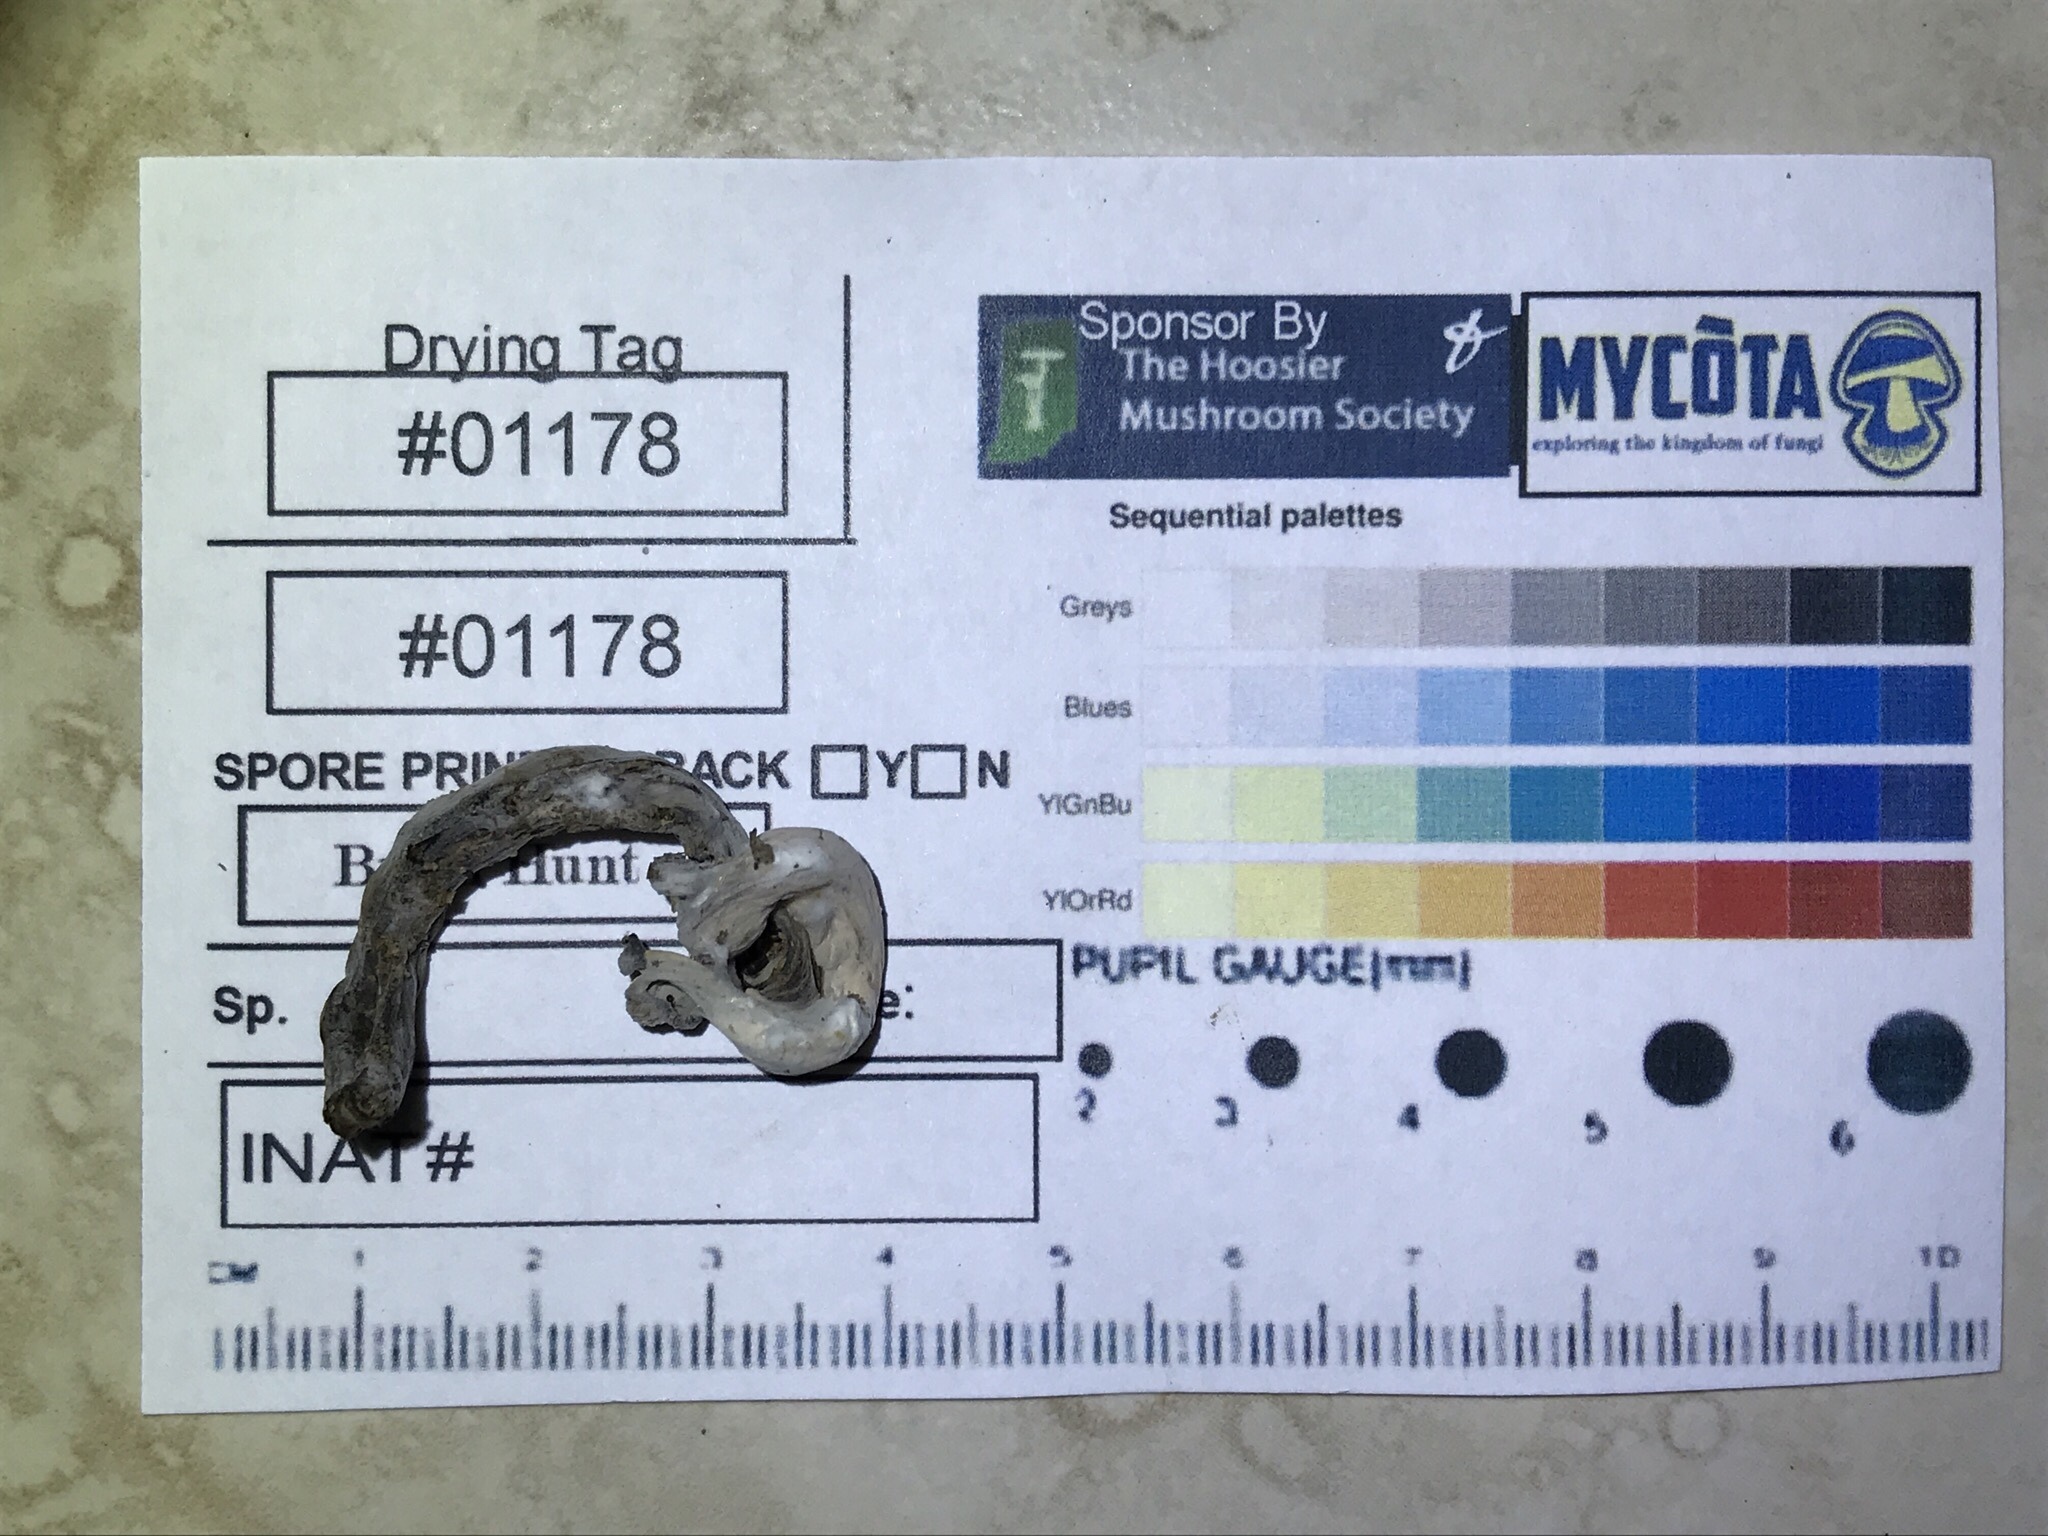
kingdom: Fungi
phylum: Basidiomycota
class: Agaricomycetes
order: Cantharellales
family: Hydnaceae
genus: Craterellus
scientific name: Craterellus cornucopioides
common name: Horn of plenty
